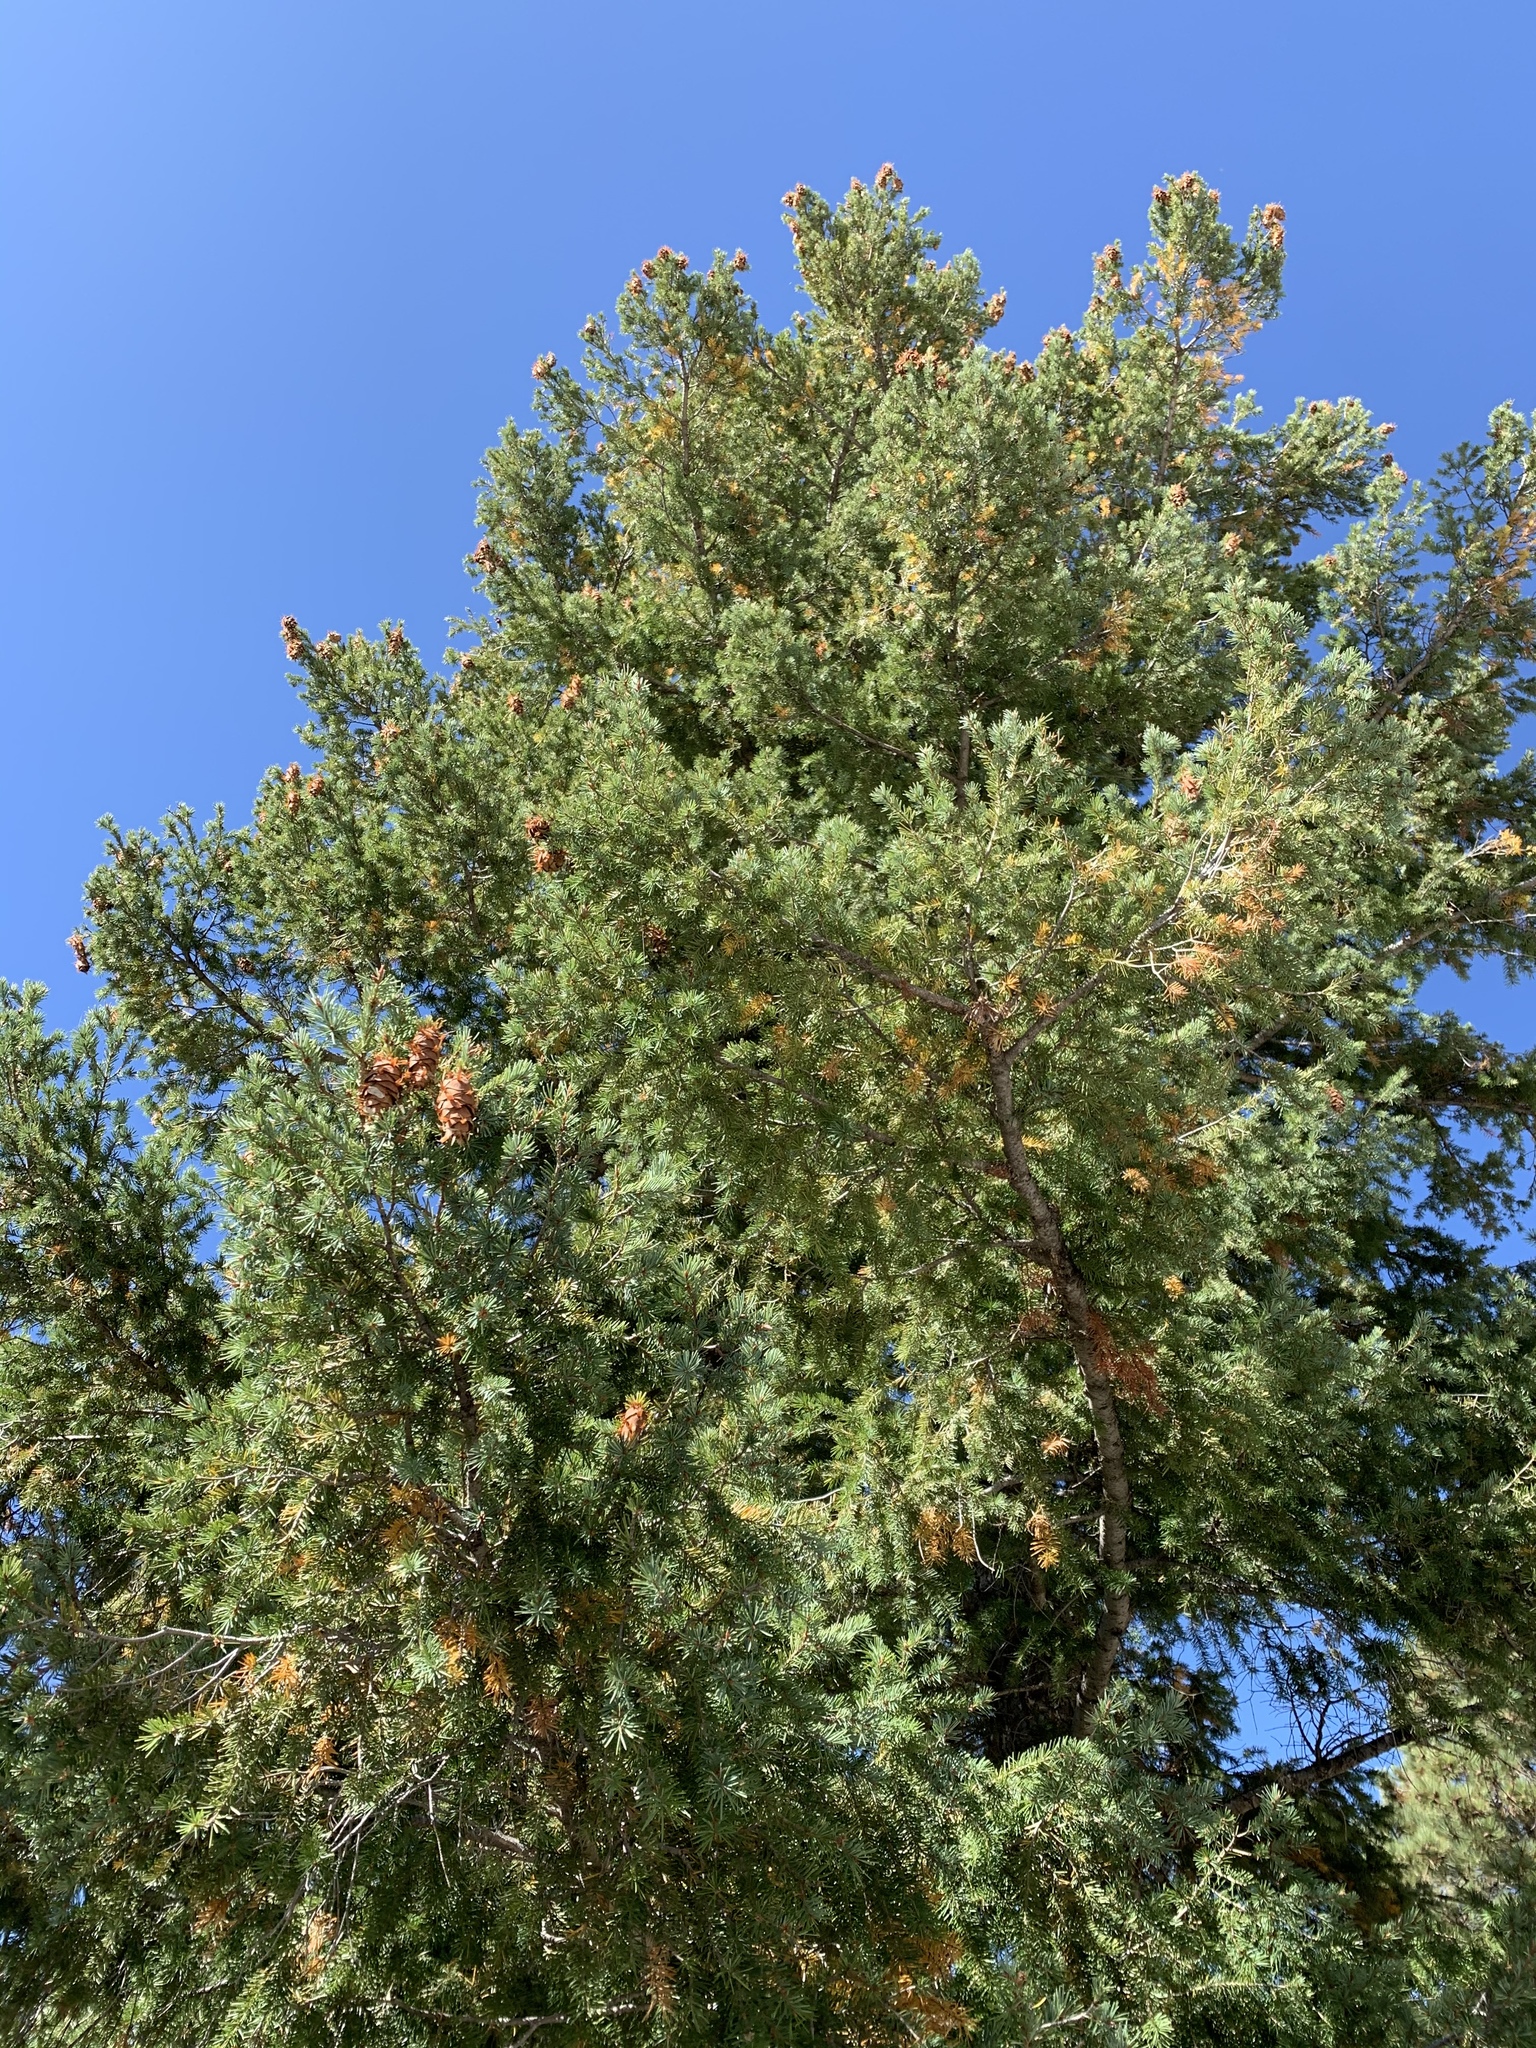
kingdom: Plantae
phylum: Tracheophyta
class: Pinopsida
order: Pinales
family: Pinaceae
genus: Pseudotsuga
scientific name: Pseudotsuga menziesii
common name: Douglas fir
